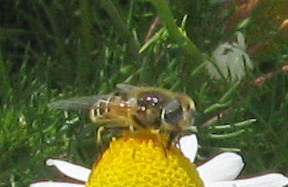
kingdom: Animalia
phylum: Arthropoda
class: Insecta
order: Diptera
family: Syrphidae
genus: Eristalis
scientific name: Eristalis hirta
